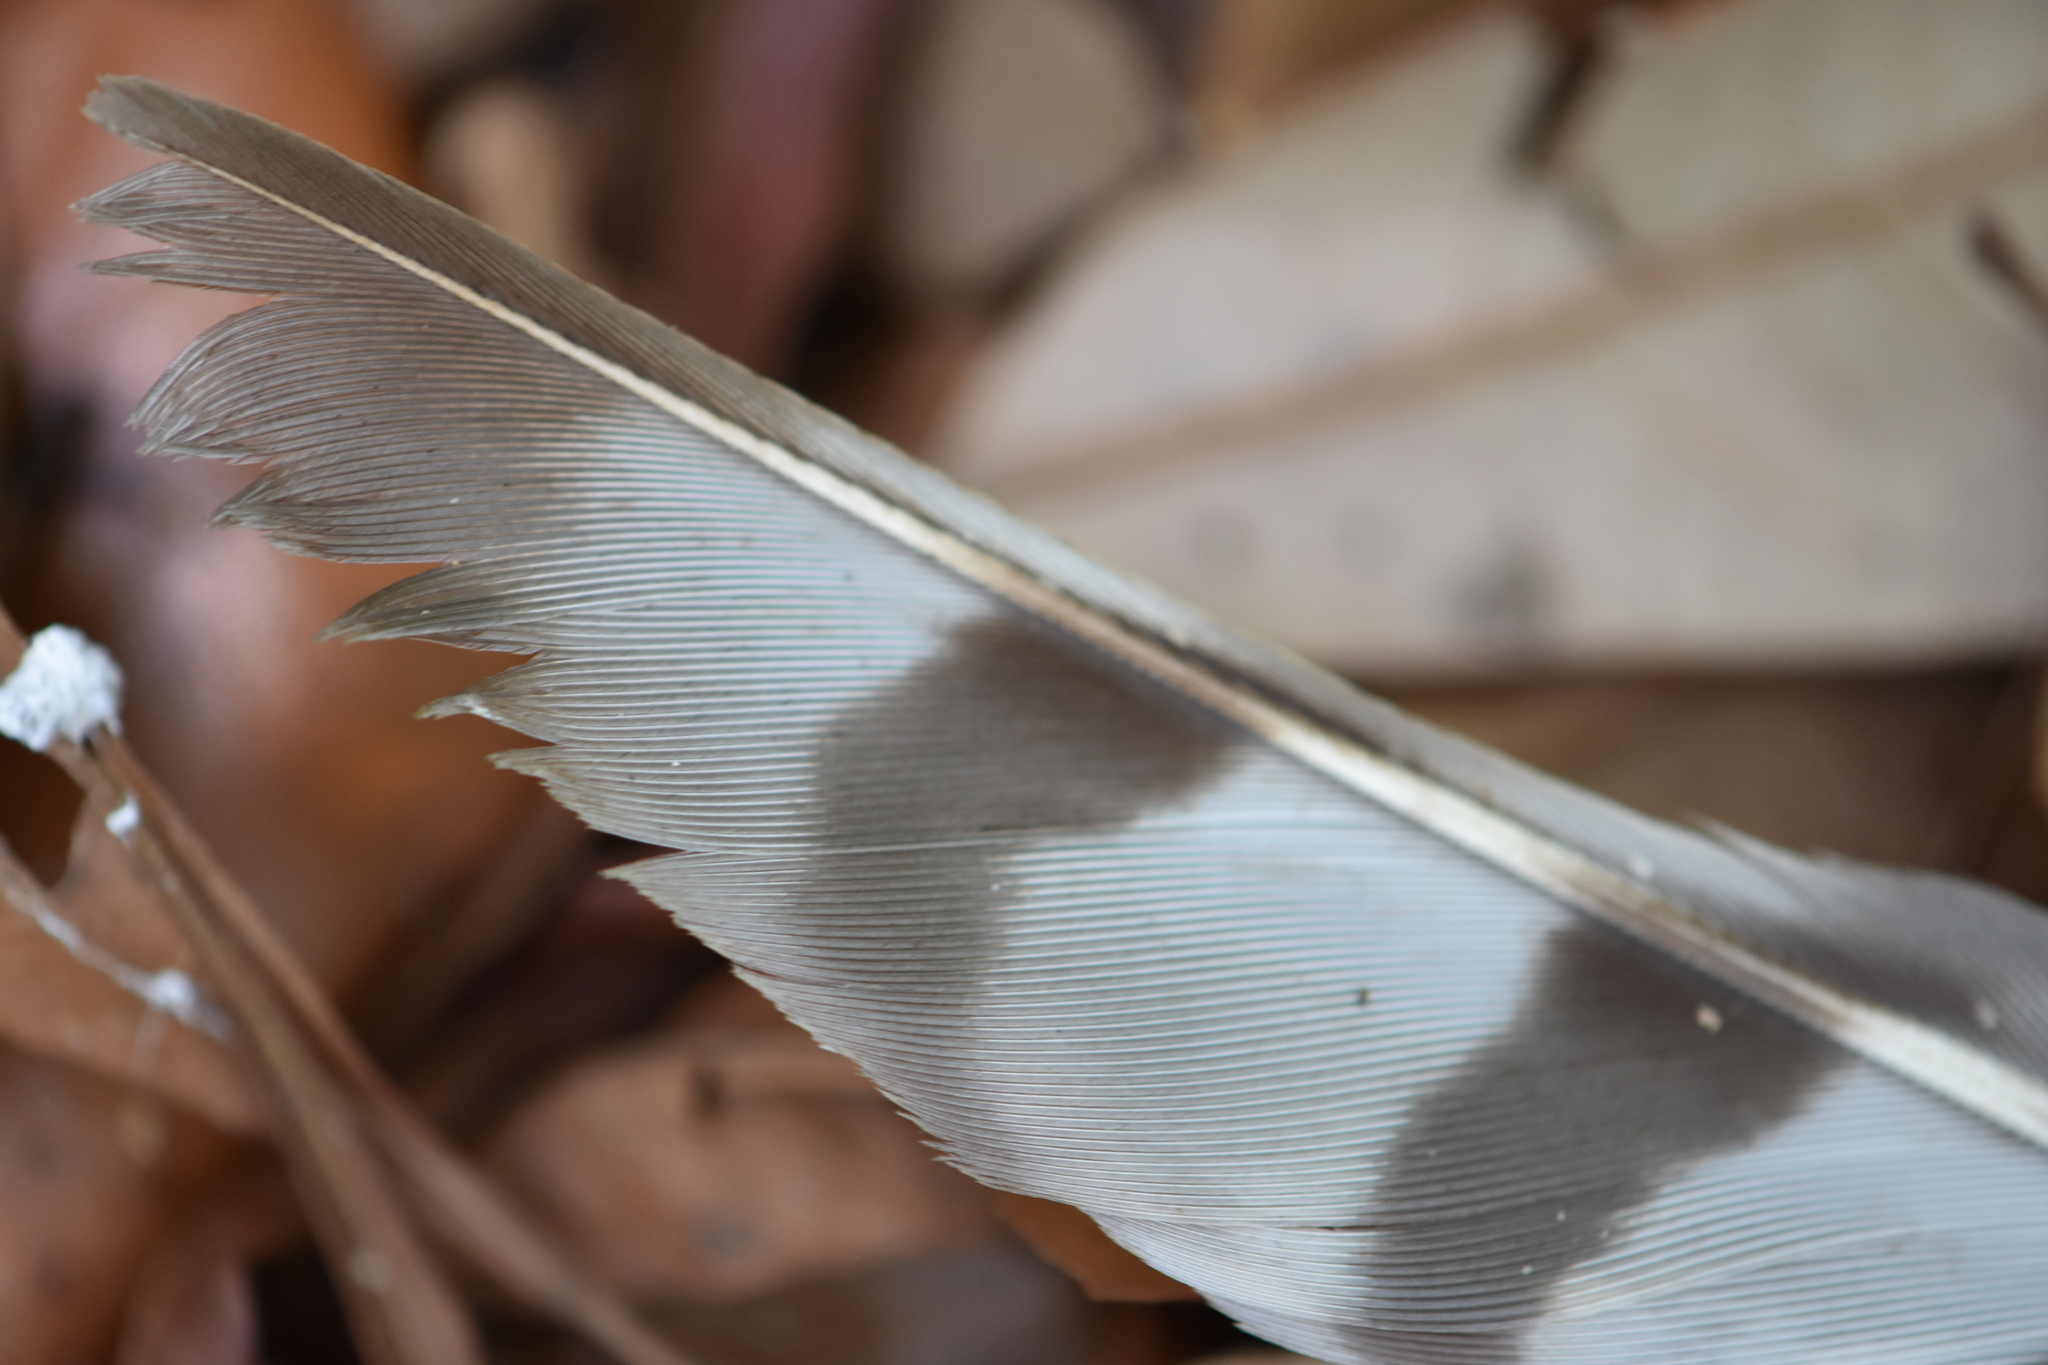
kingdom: Animalia
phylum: Chordata
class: Aves
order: Accipitriformes
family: Accipitridae
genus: Accipiter
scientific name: Accipiter cooperii
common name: Cooper's hawk
